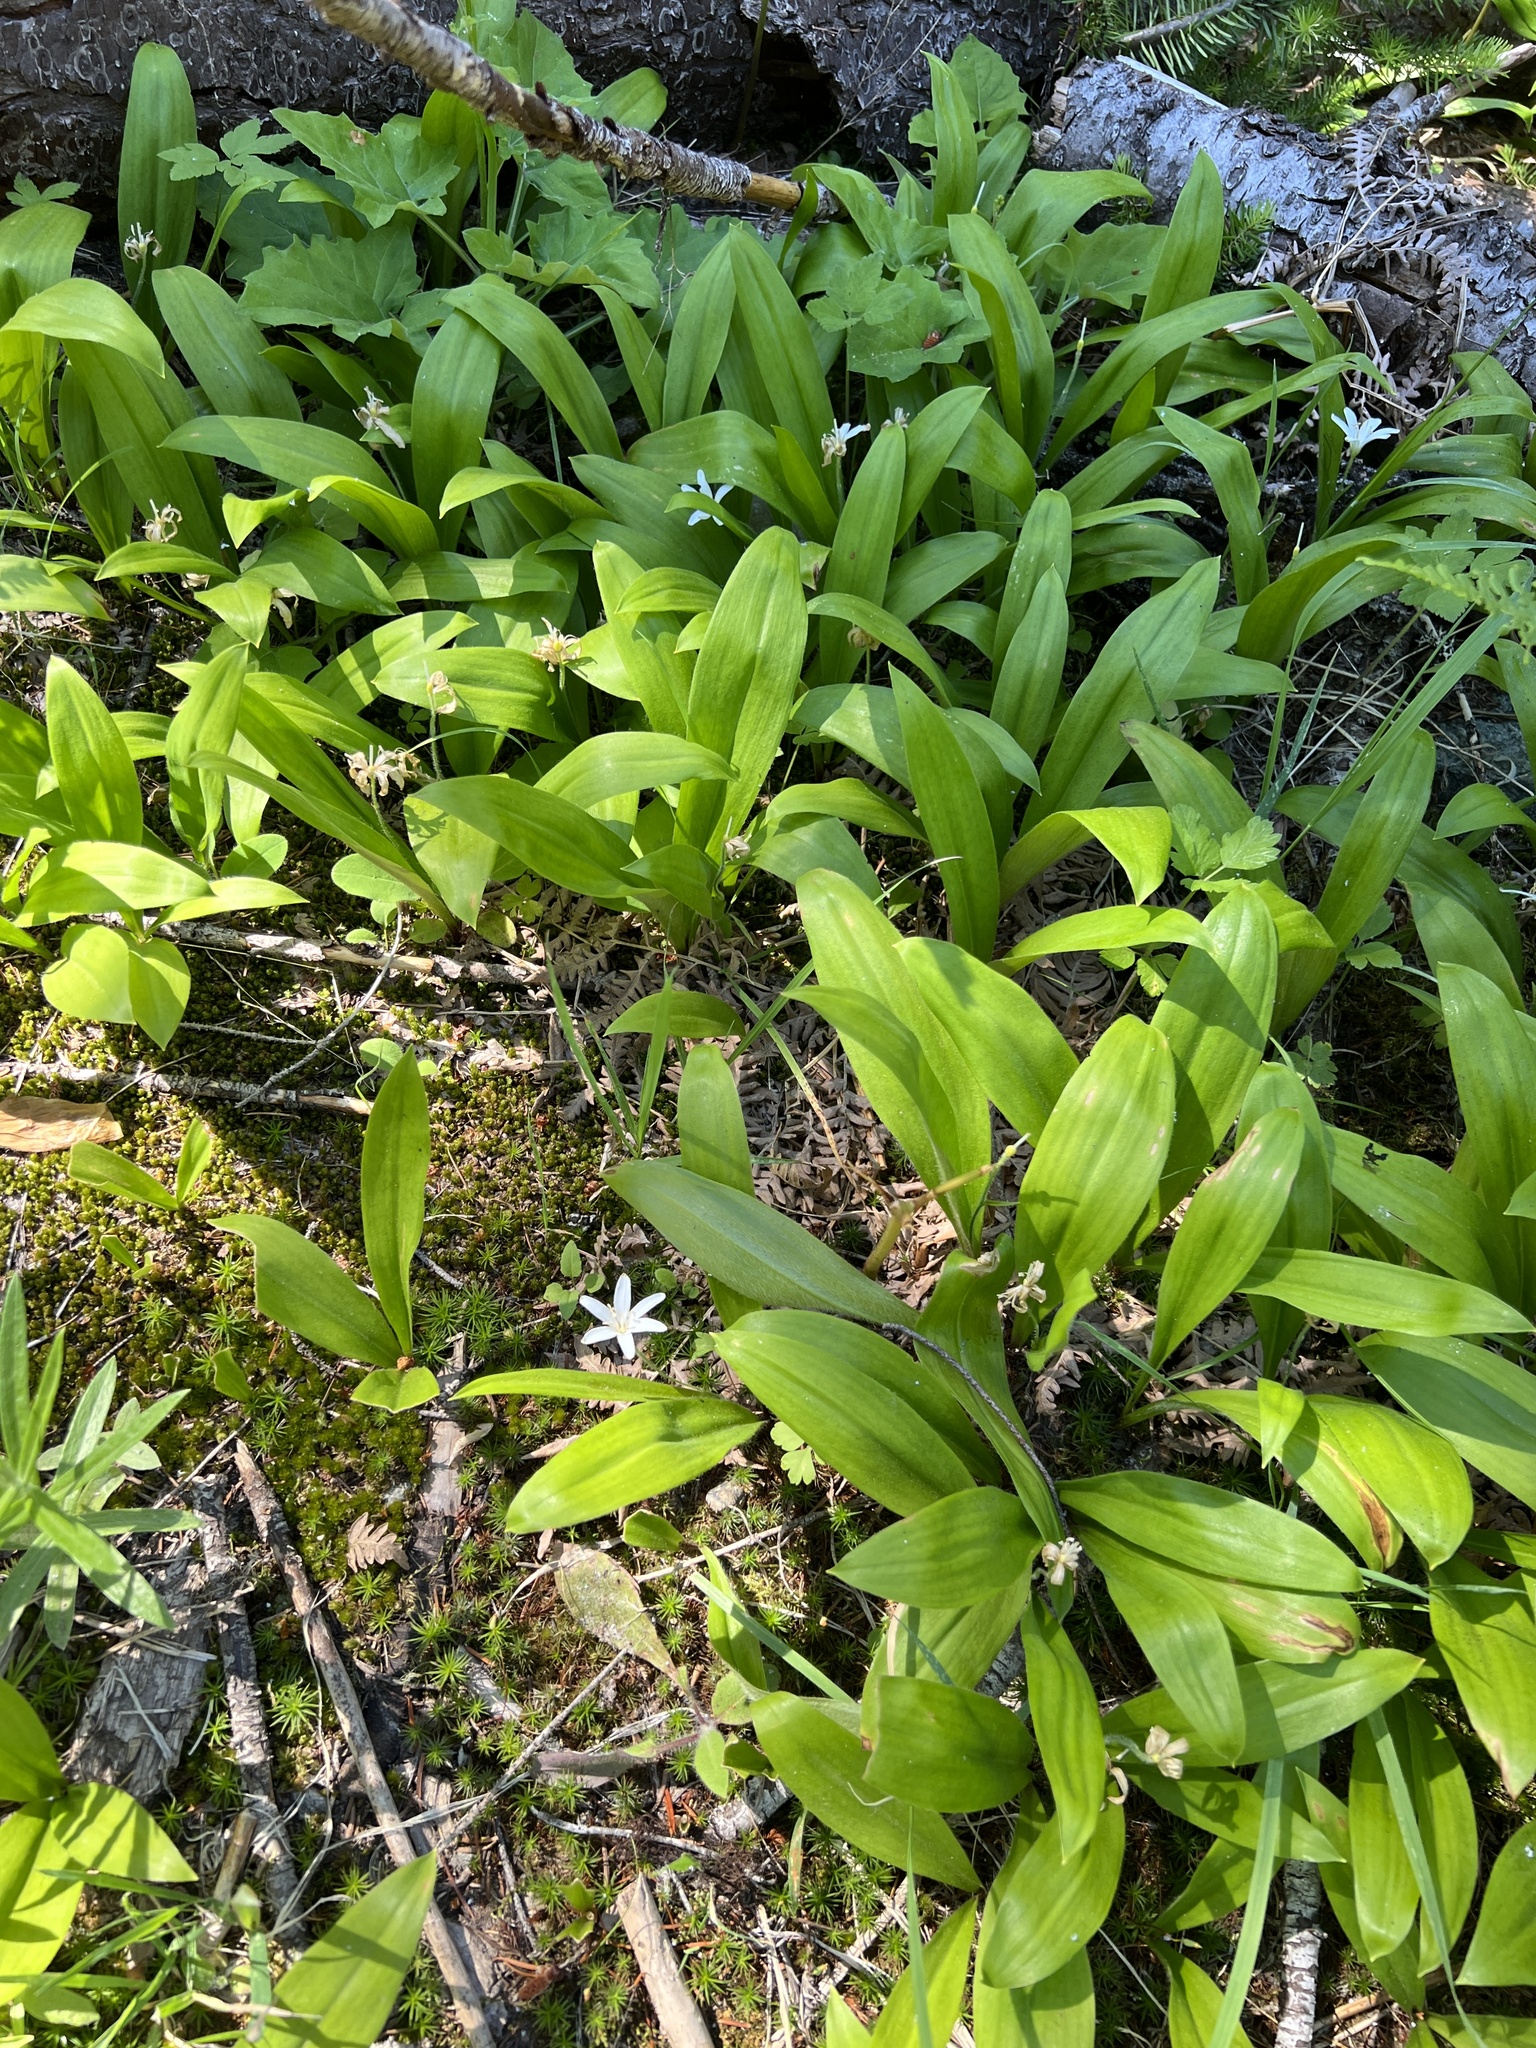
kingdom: Plantae
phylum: Tracheophyta
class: Liliopsida
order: Liliales
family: Liliaceae
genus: Clintonia
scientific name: Clintonia uniflora
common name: Queen's cup
